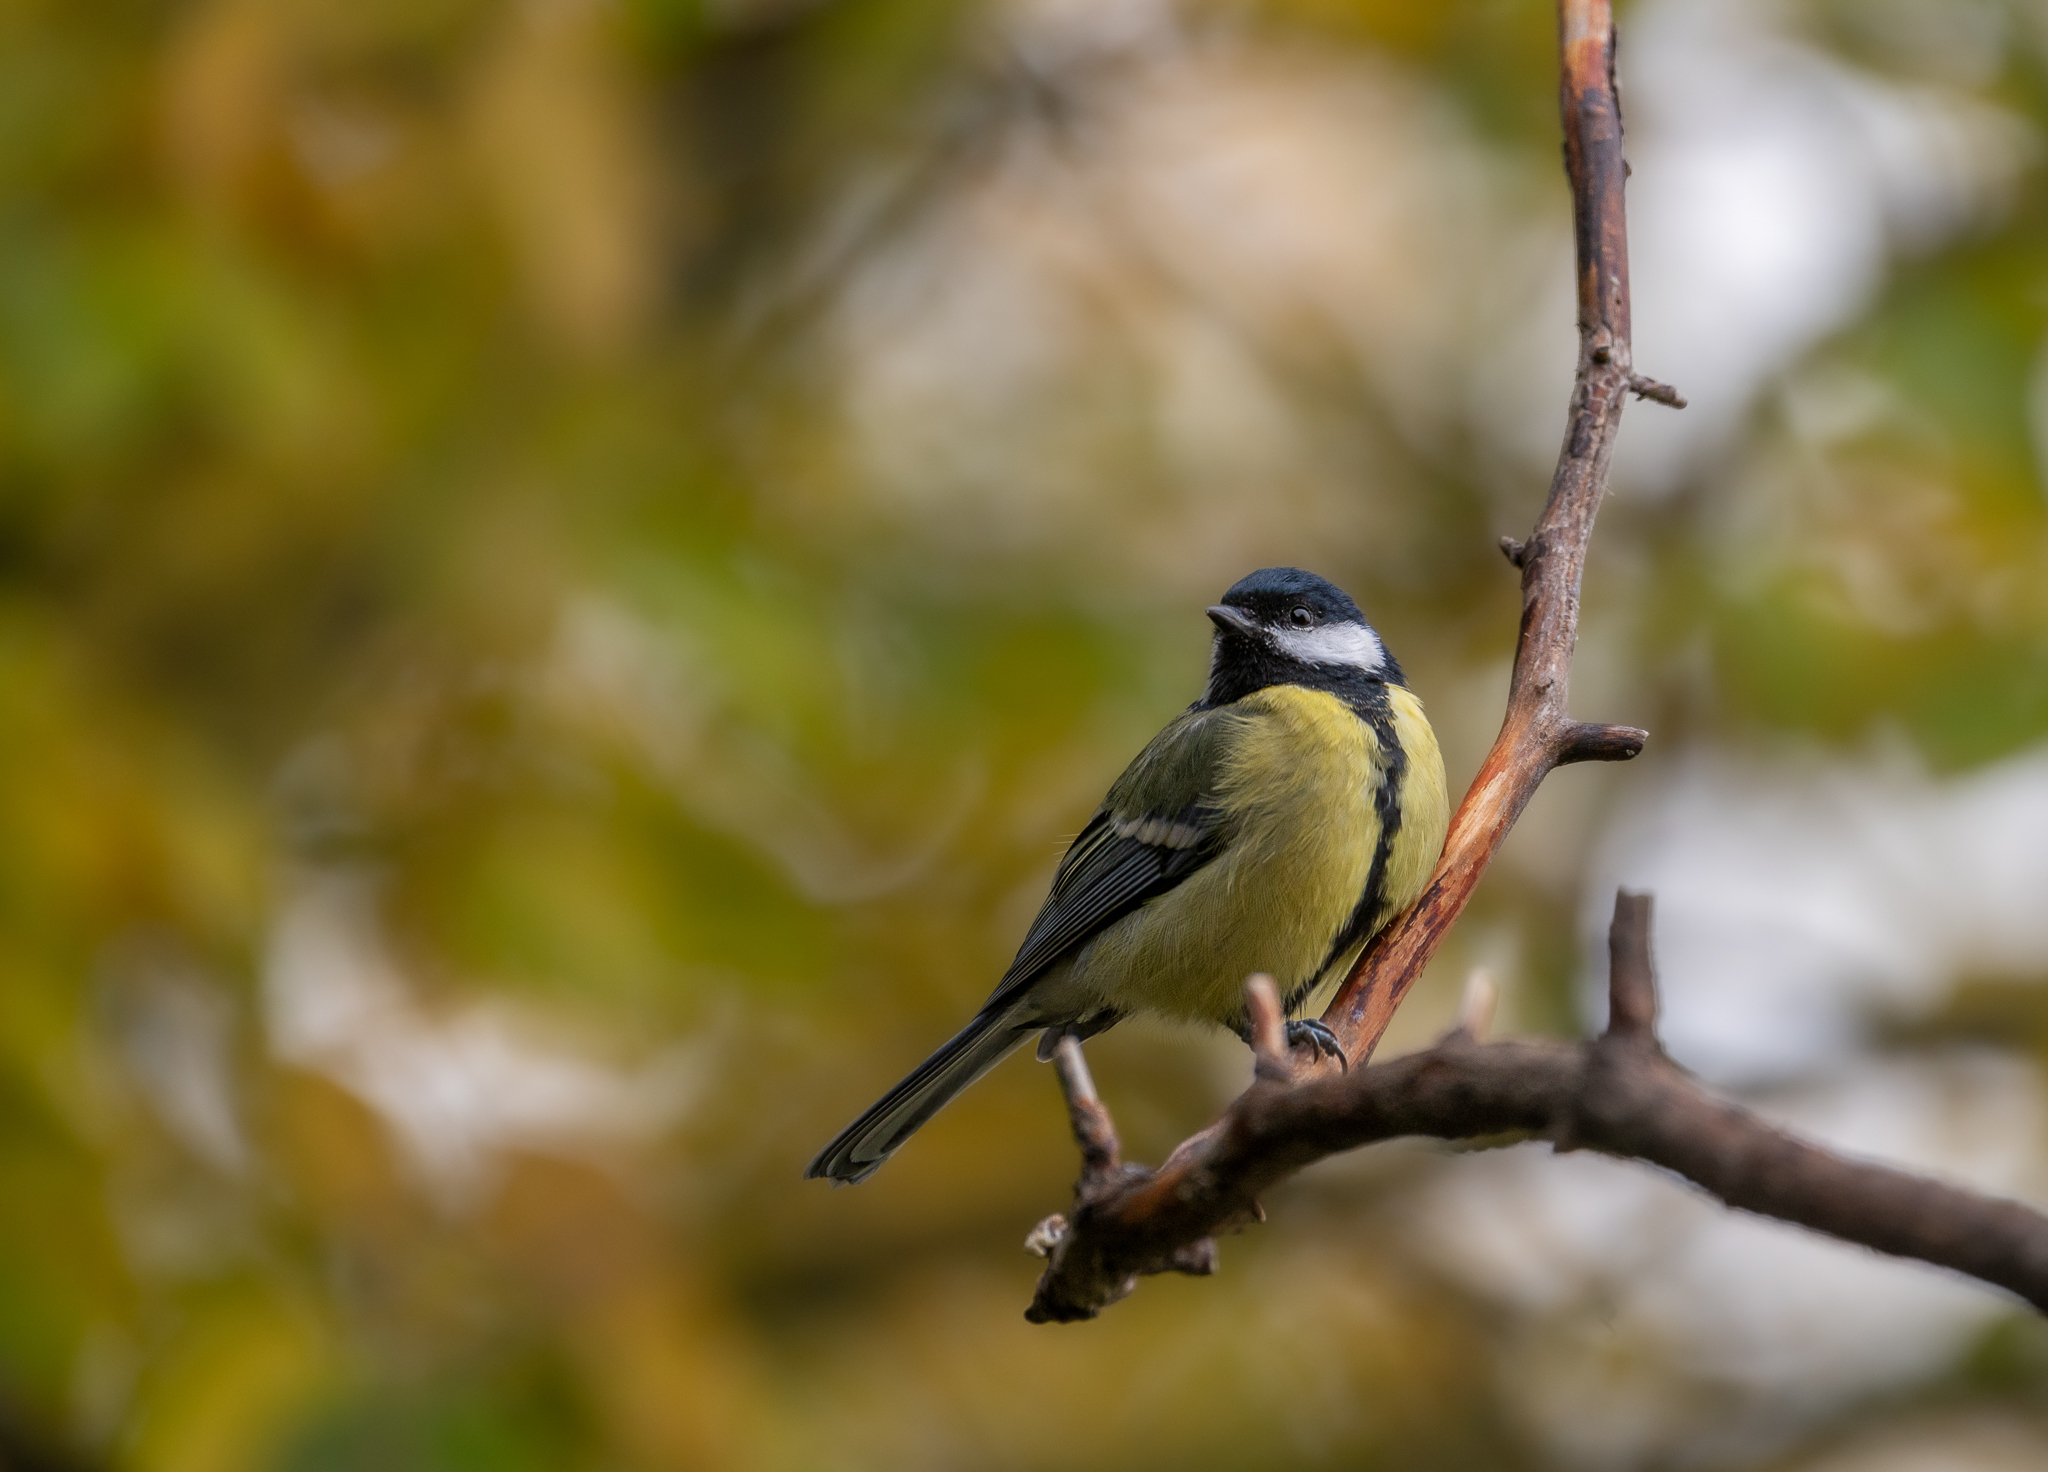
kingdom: Animalia
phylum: Chordata
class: Aves
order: Passeriformes
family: Paridae
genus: Parus
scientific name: Parus major
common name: Great tit
